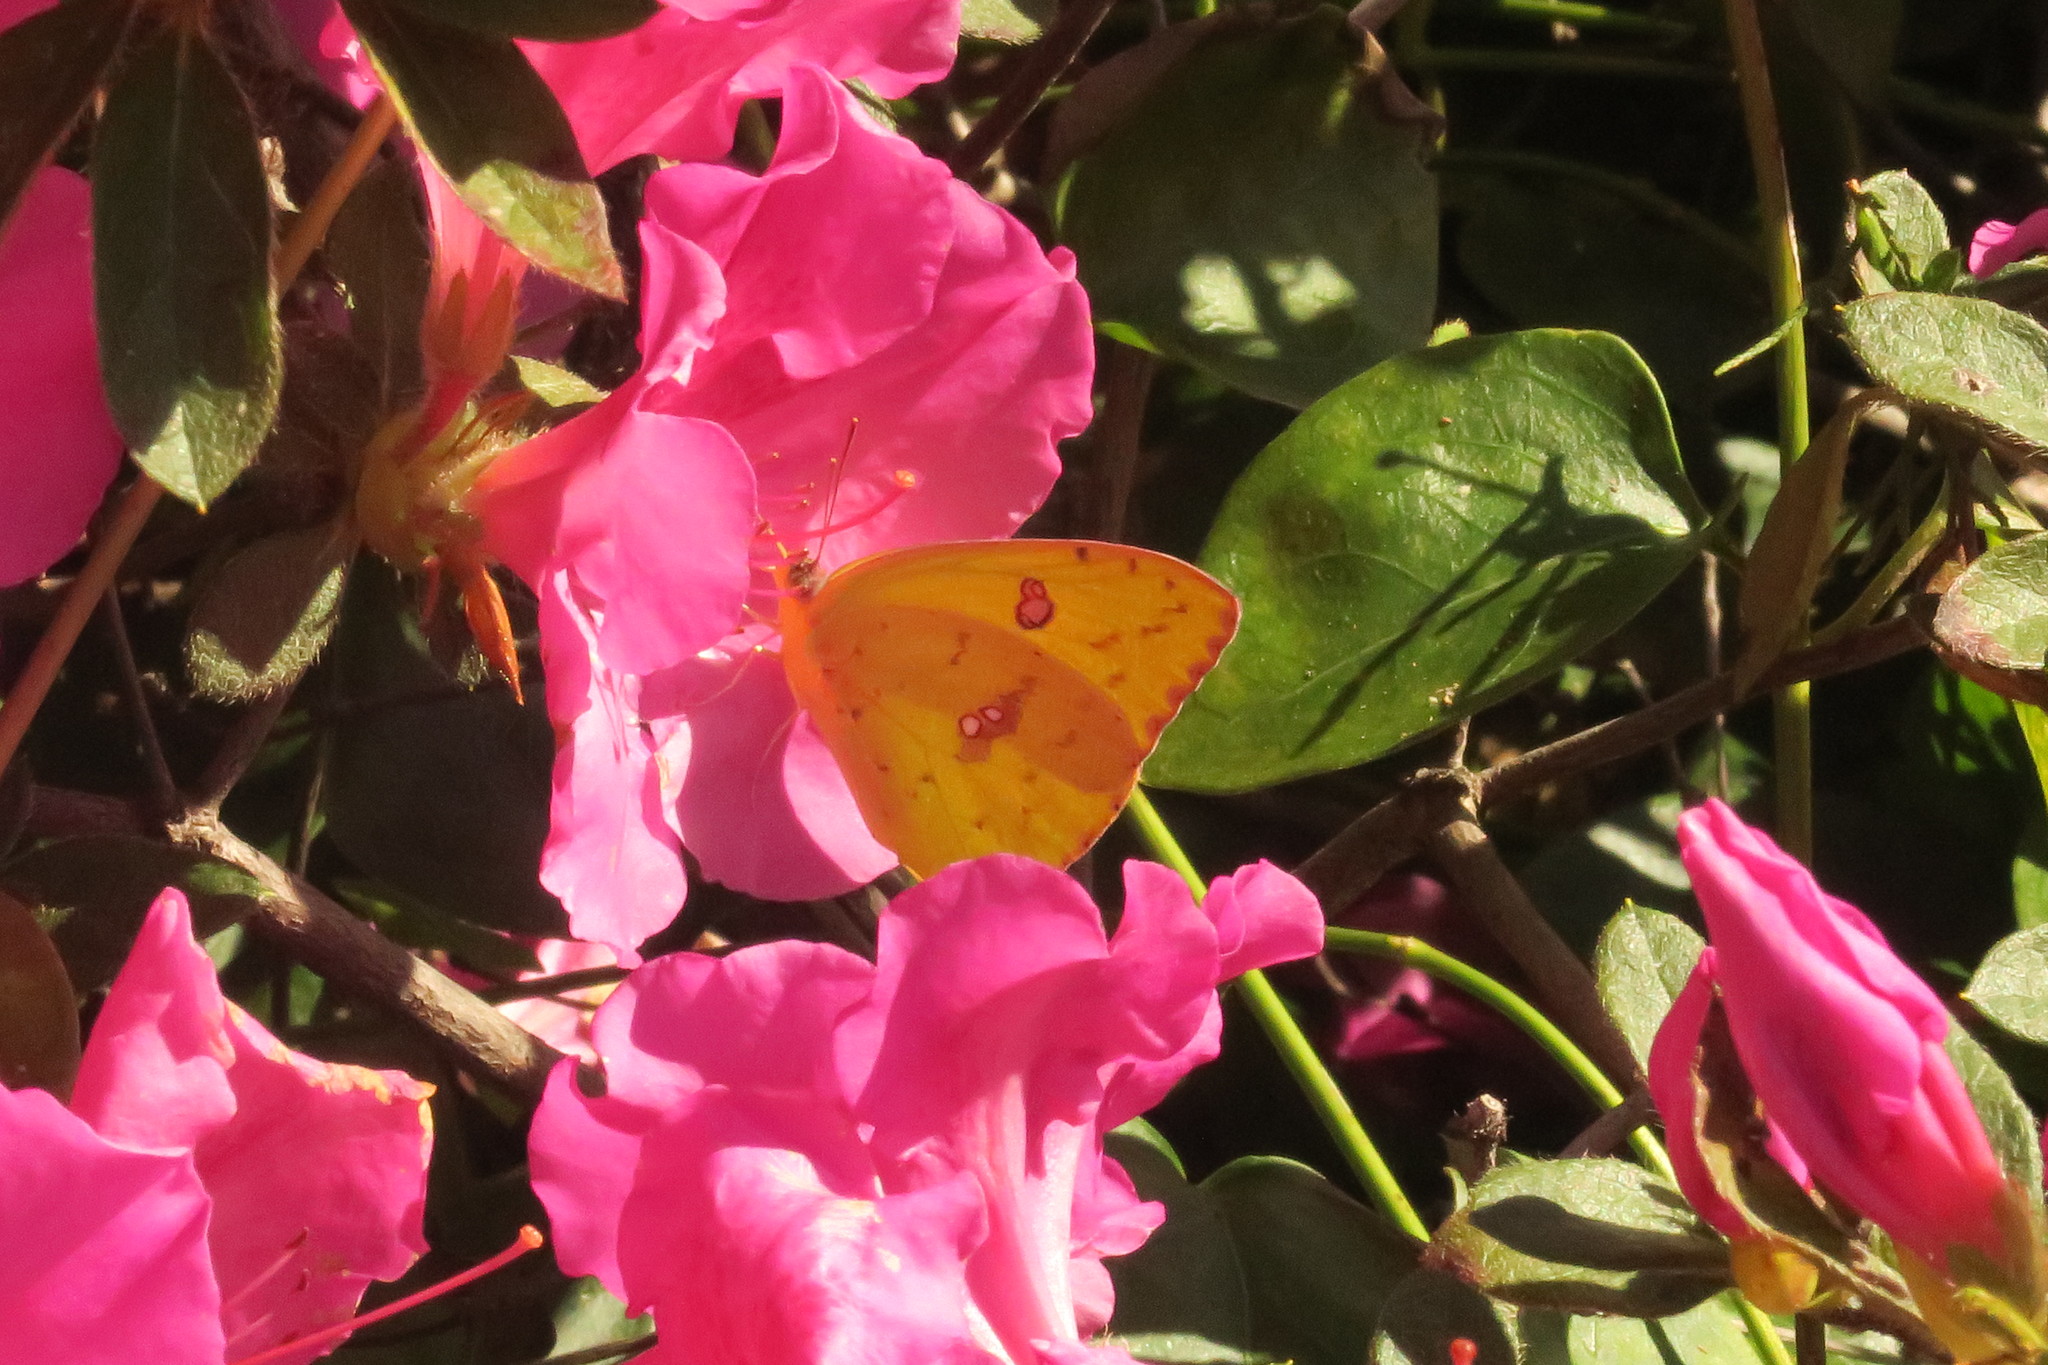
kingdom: Animalia
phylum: Arthropoda
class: Insecta
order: Lepidoptera
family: Pieridae
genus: Phoebis
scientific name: Phoebis sennae
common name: Cloudless sulphur
